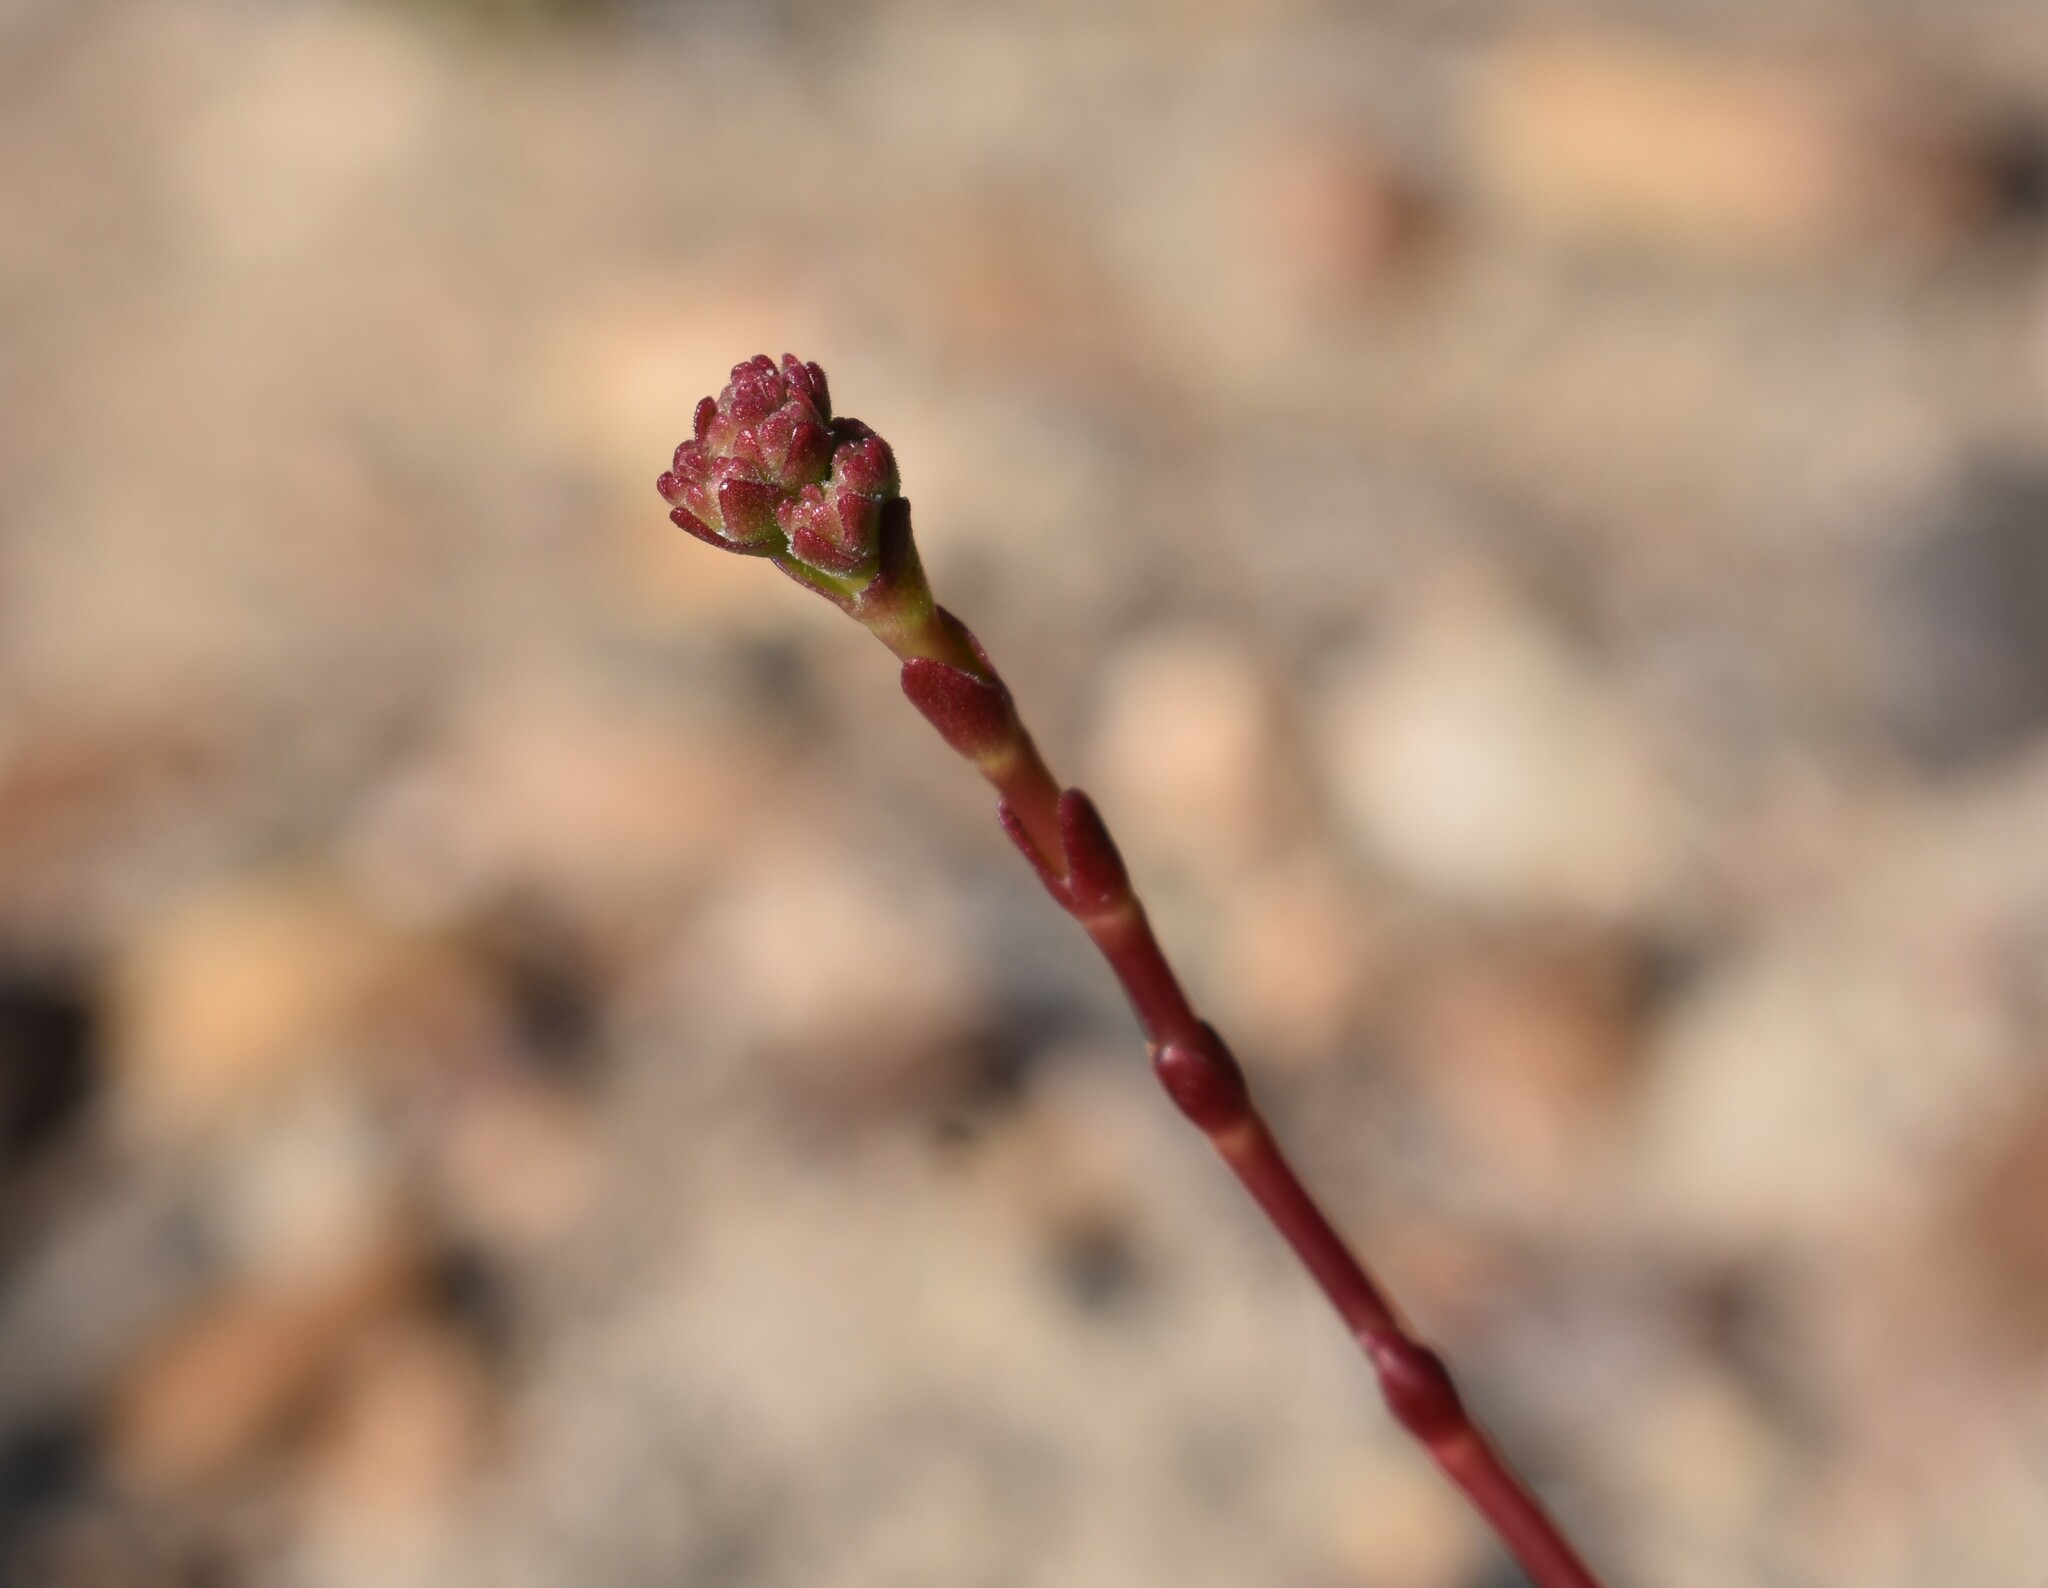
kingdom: Plantae
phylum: Tracheophyta
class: Magnoliopsida
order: Saxifragales
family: Crassulaceae
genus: Crassula
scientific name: Crassula atropurpurea
